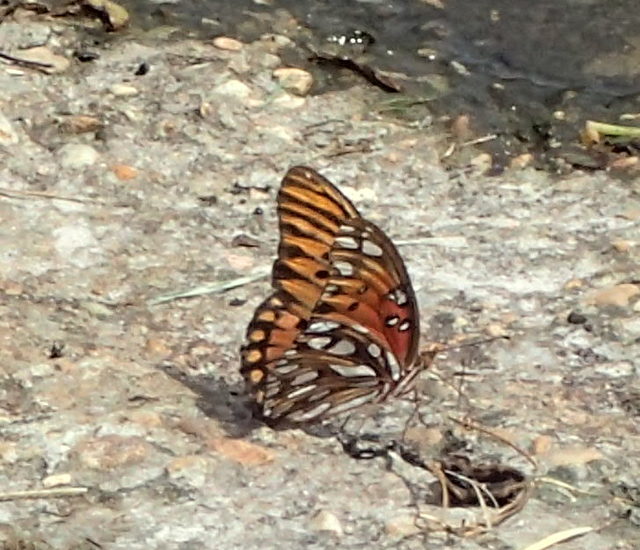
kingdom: Animalia
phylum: Arthropoda
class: Insecta
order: Lepidoptera
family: Nymphalidae
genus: Dione
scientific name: Dione vanillae
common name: Gulf fritillary
